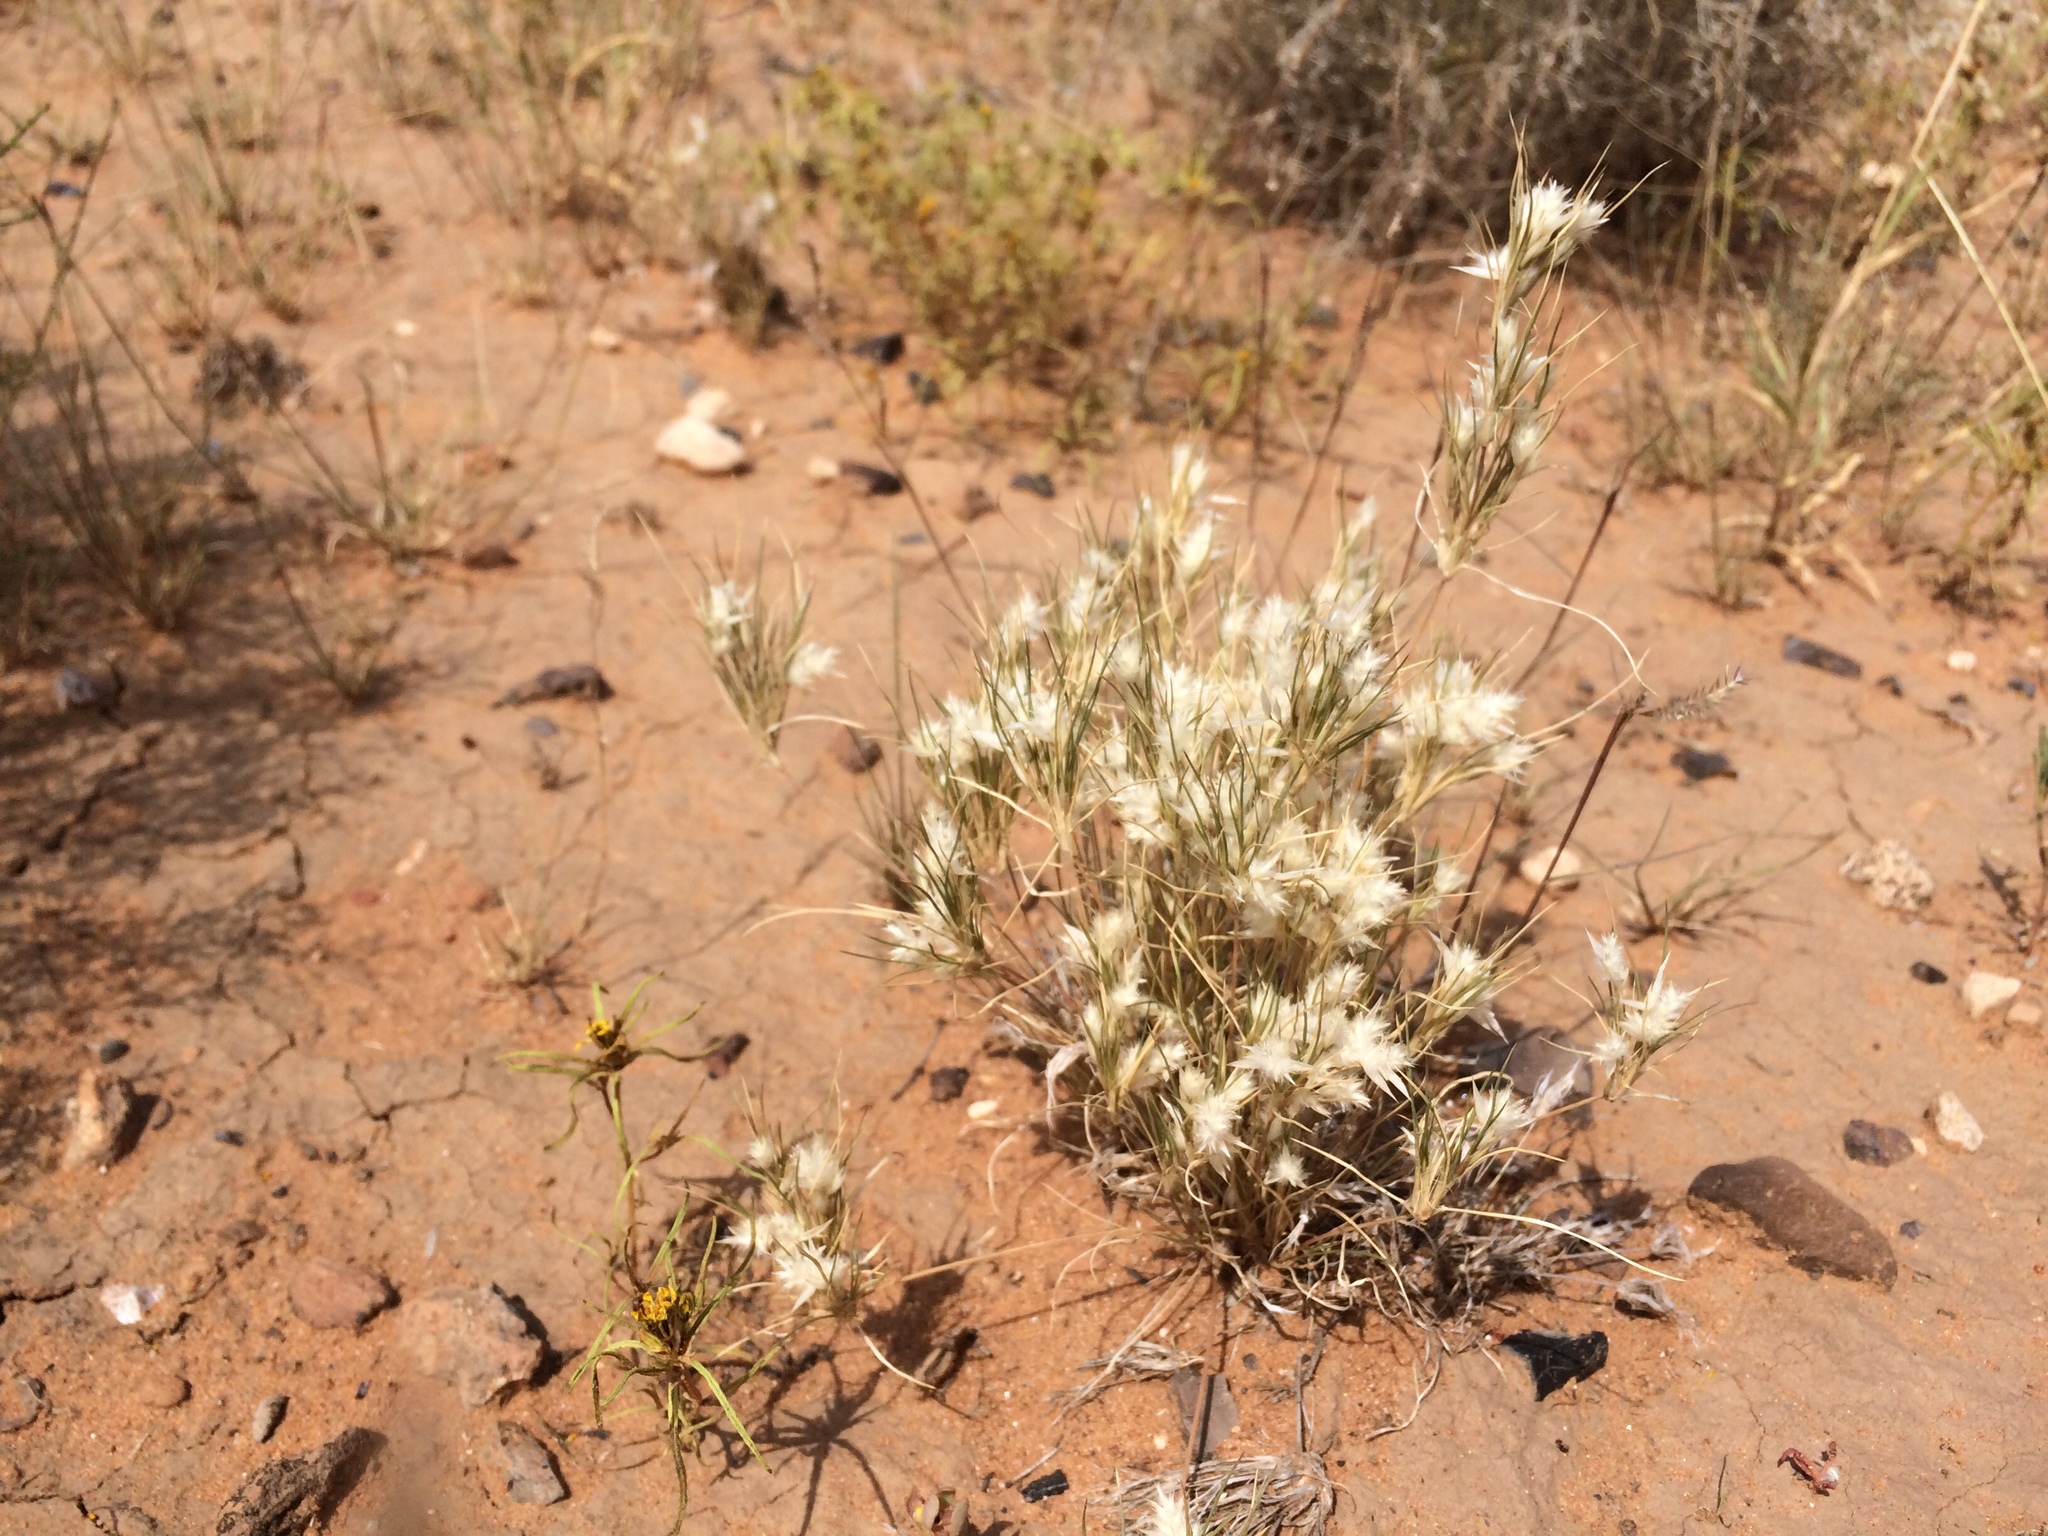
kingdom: Plantae
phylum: Tracheophyta
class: Liliopsida
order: Poales
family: Poaceae
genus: Dasyochloa
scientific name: Dasyochloa pulchella
